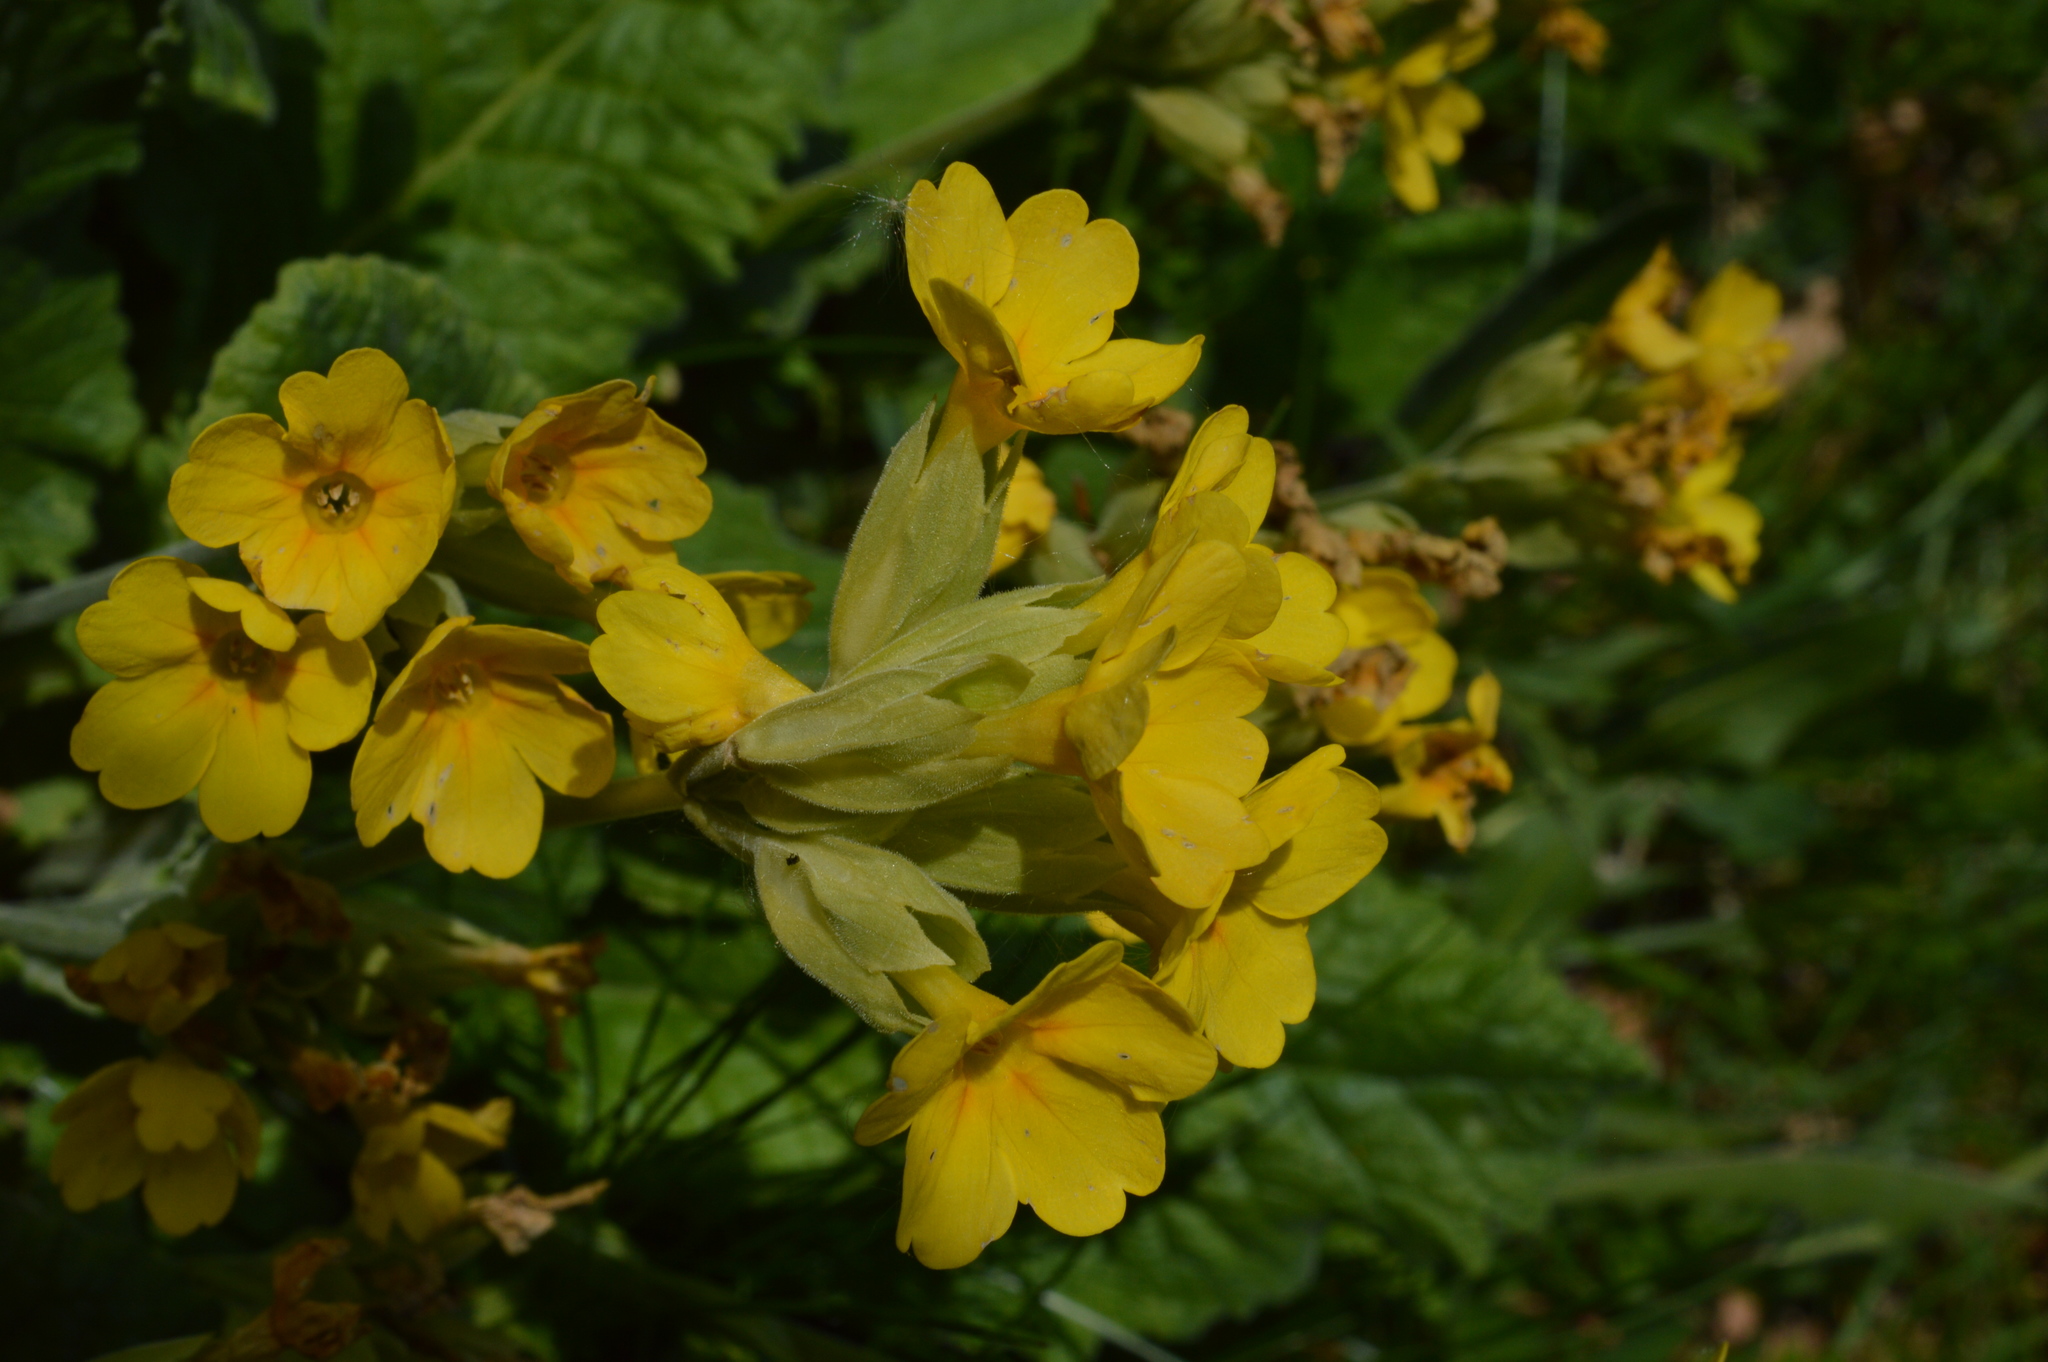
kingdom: Plantae
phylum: Tracheophyta
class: Magnoliopsida
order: Ericales
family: Primulaceae
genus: Primula
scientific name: Primula veris
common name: Cowslip
